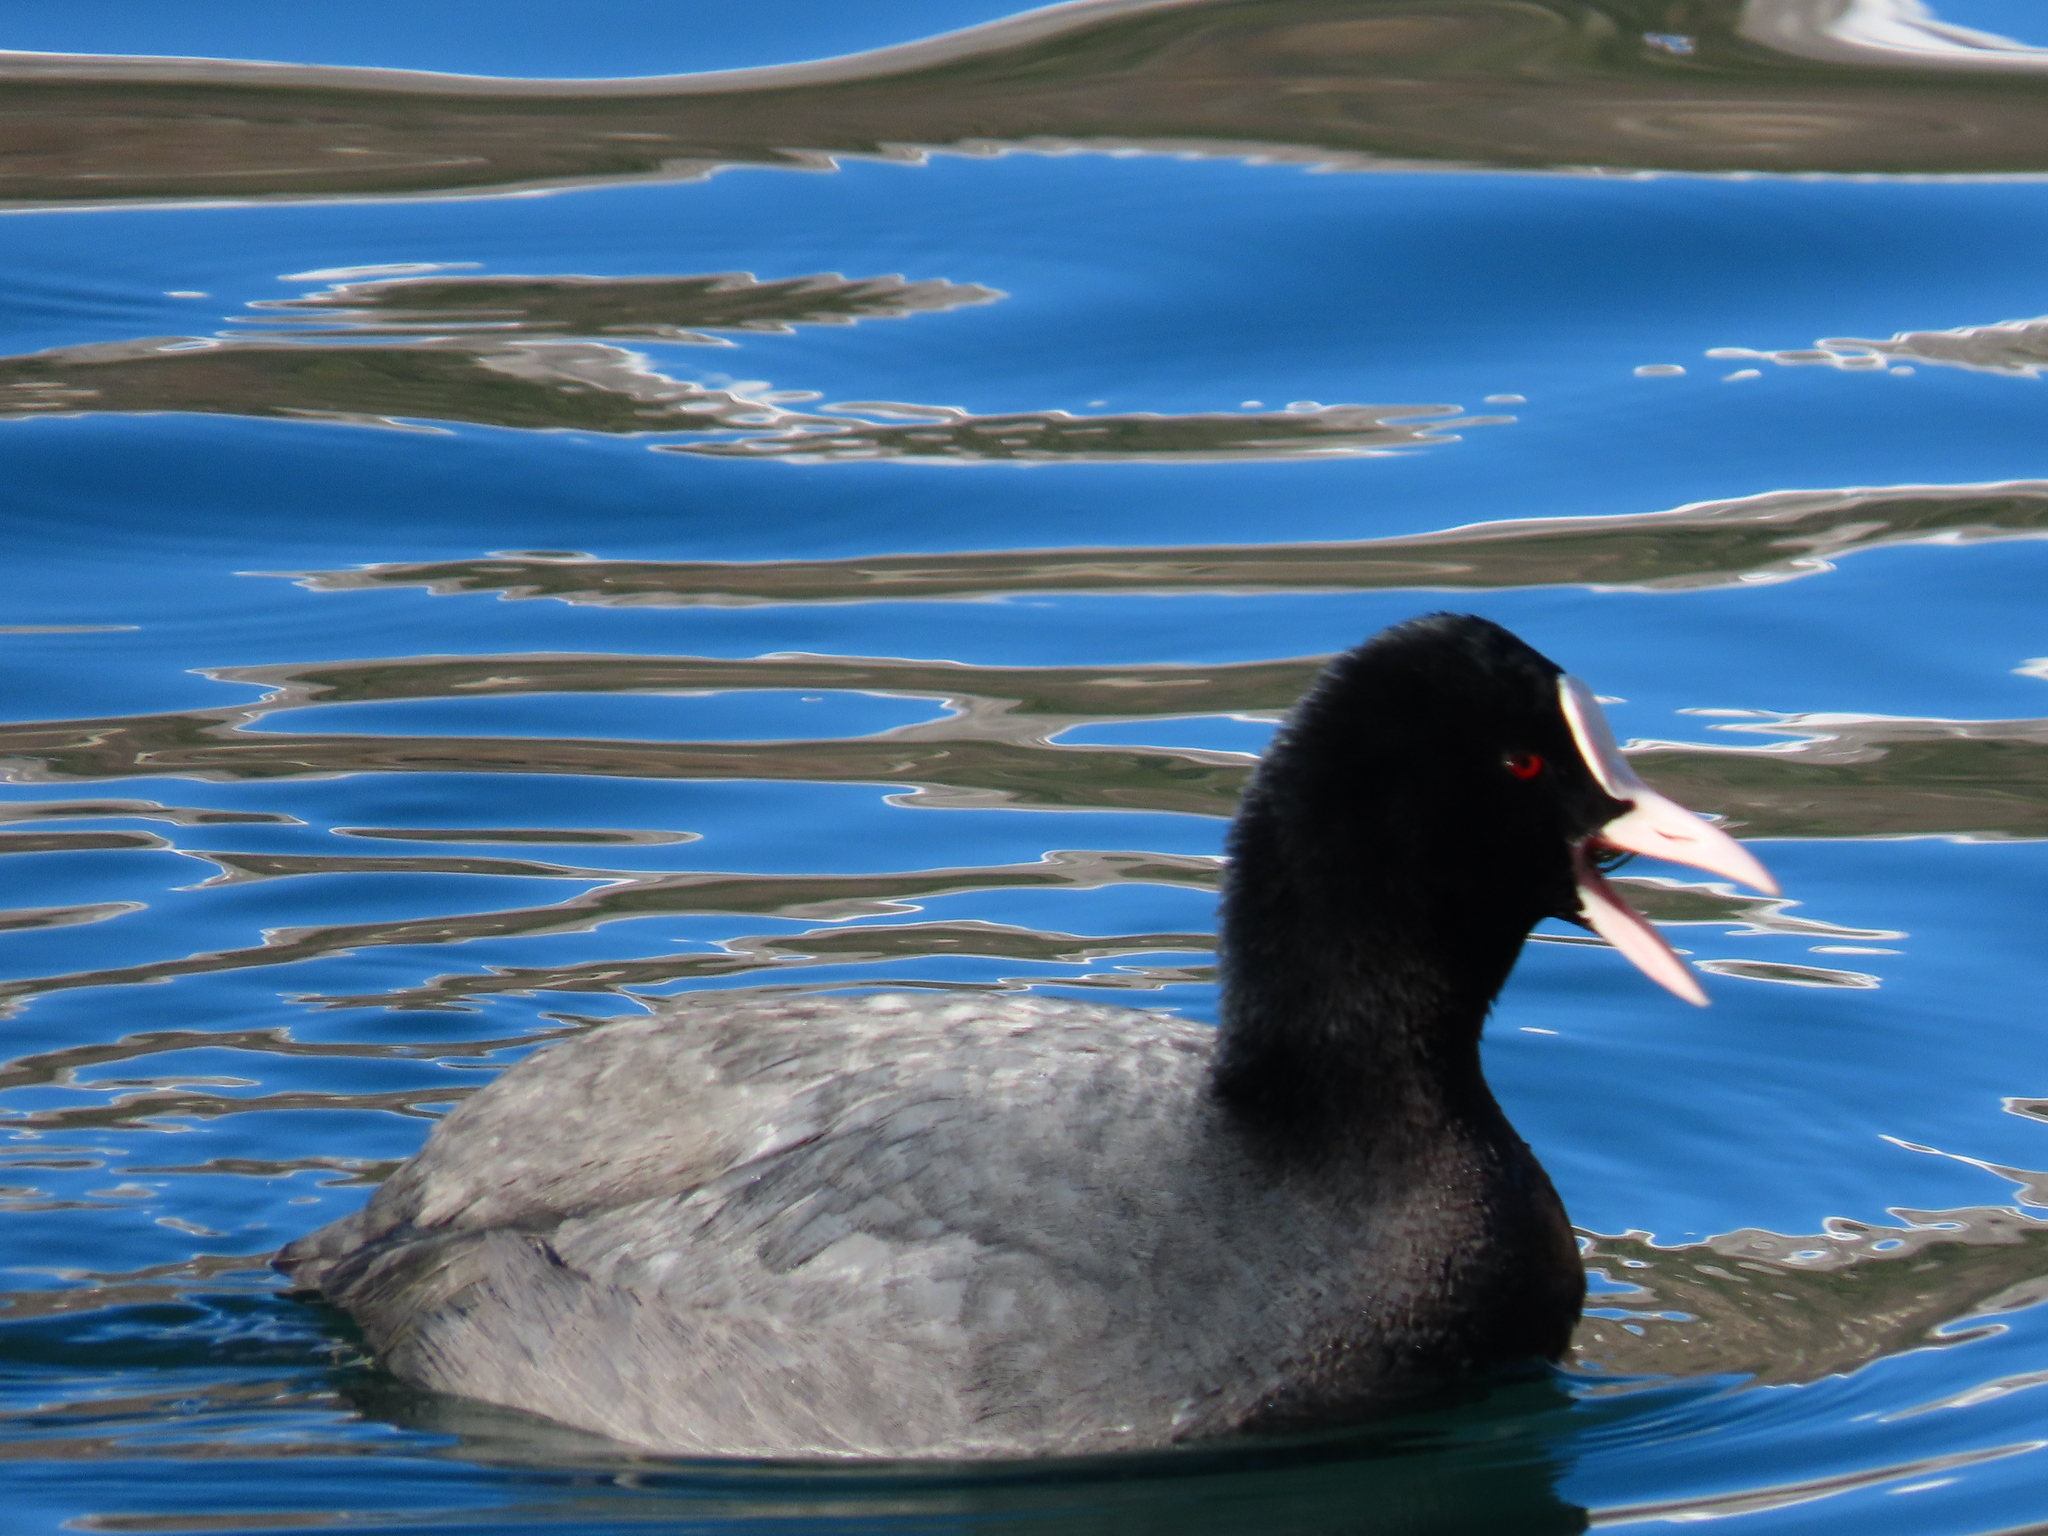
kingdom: Animalia
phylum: Chordata
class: Aves
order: Gruiformes
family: Rallidae
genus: Fulica
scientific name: Fulica atra
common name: Eurasian coot
